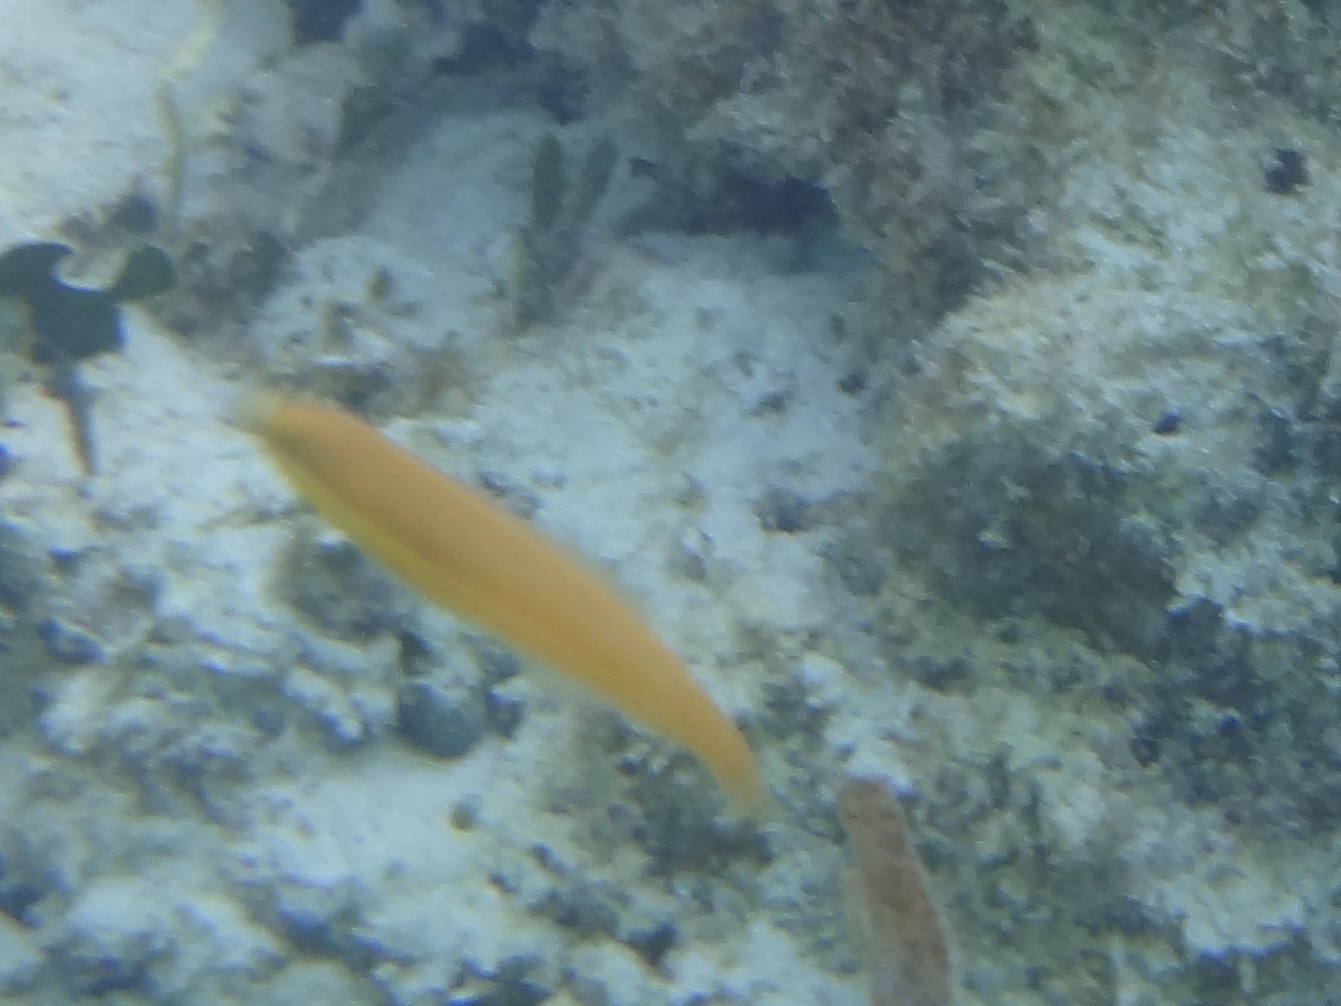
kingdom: Animalia
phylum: Chordata
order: Perciformes
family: Labridae
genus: Halichoeres
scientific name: Halichoeres garnoti
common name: Yellowhead wrasse
